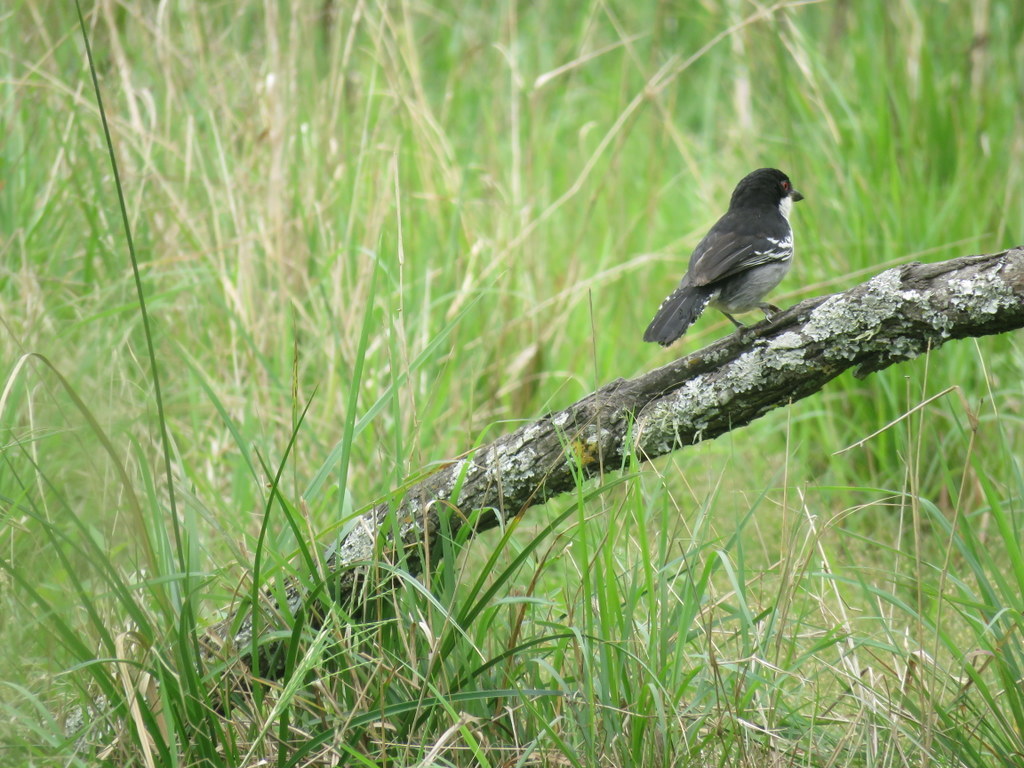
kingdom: Animalia
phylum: Chordata
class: Aves
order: Passeriformes
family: Thamnophilidae
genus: Taraba
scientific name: Taraba major
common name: Great antshrike
